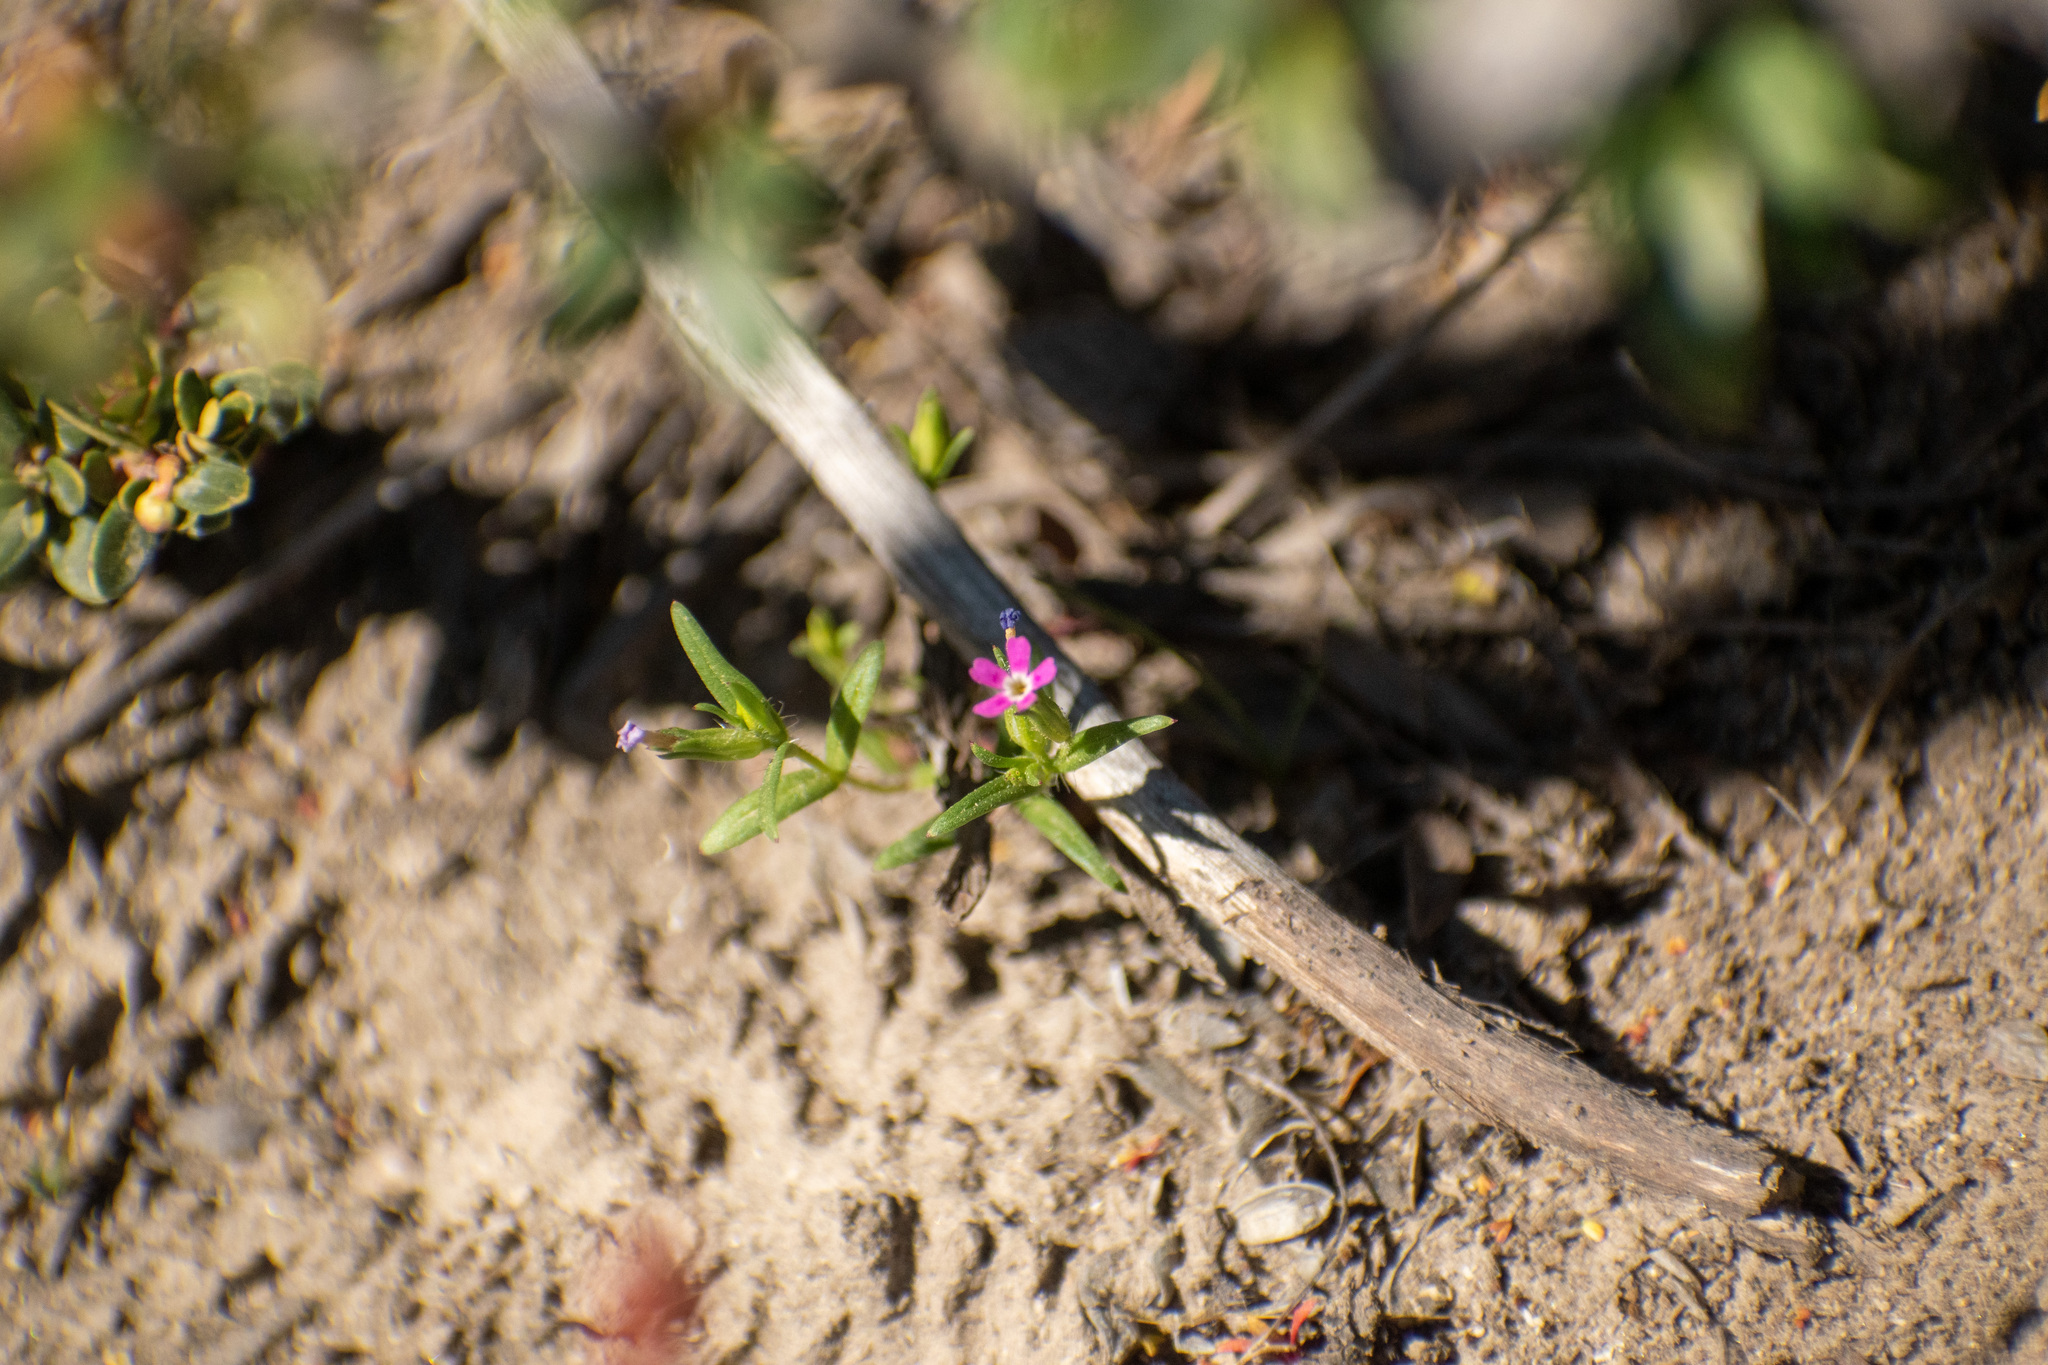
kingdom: Plantae
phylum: Tracheophyta
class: Magnoliopsida
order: Ericales
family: Polemoniaceae
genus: Phlox
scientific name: Phlox gracilis
